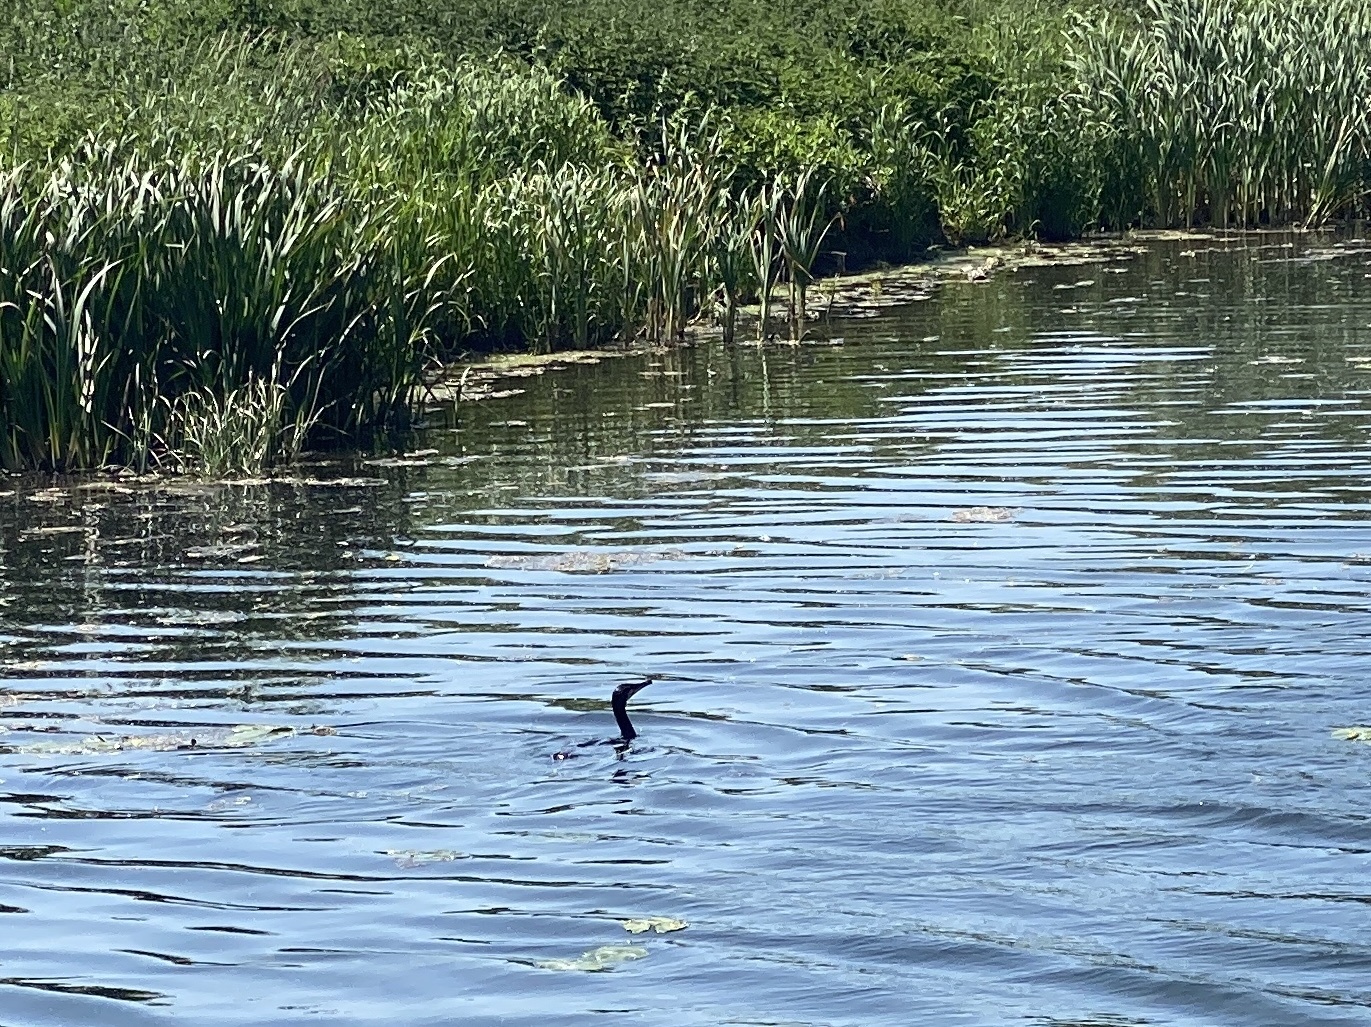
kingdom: Animalia
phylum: Chordata
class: Aves
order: Suliformes
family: Phalacrocoracidae
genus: Phalacrocorax
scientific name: Phalacrocorax carbo
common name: Great cormorant
